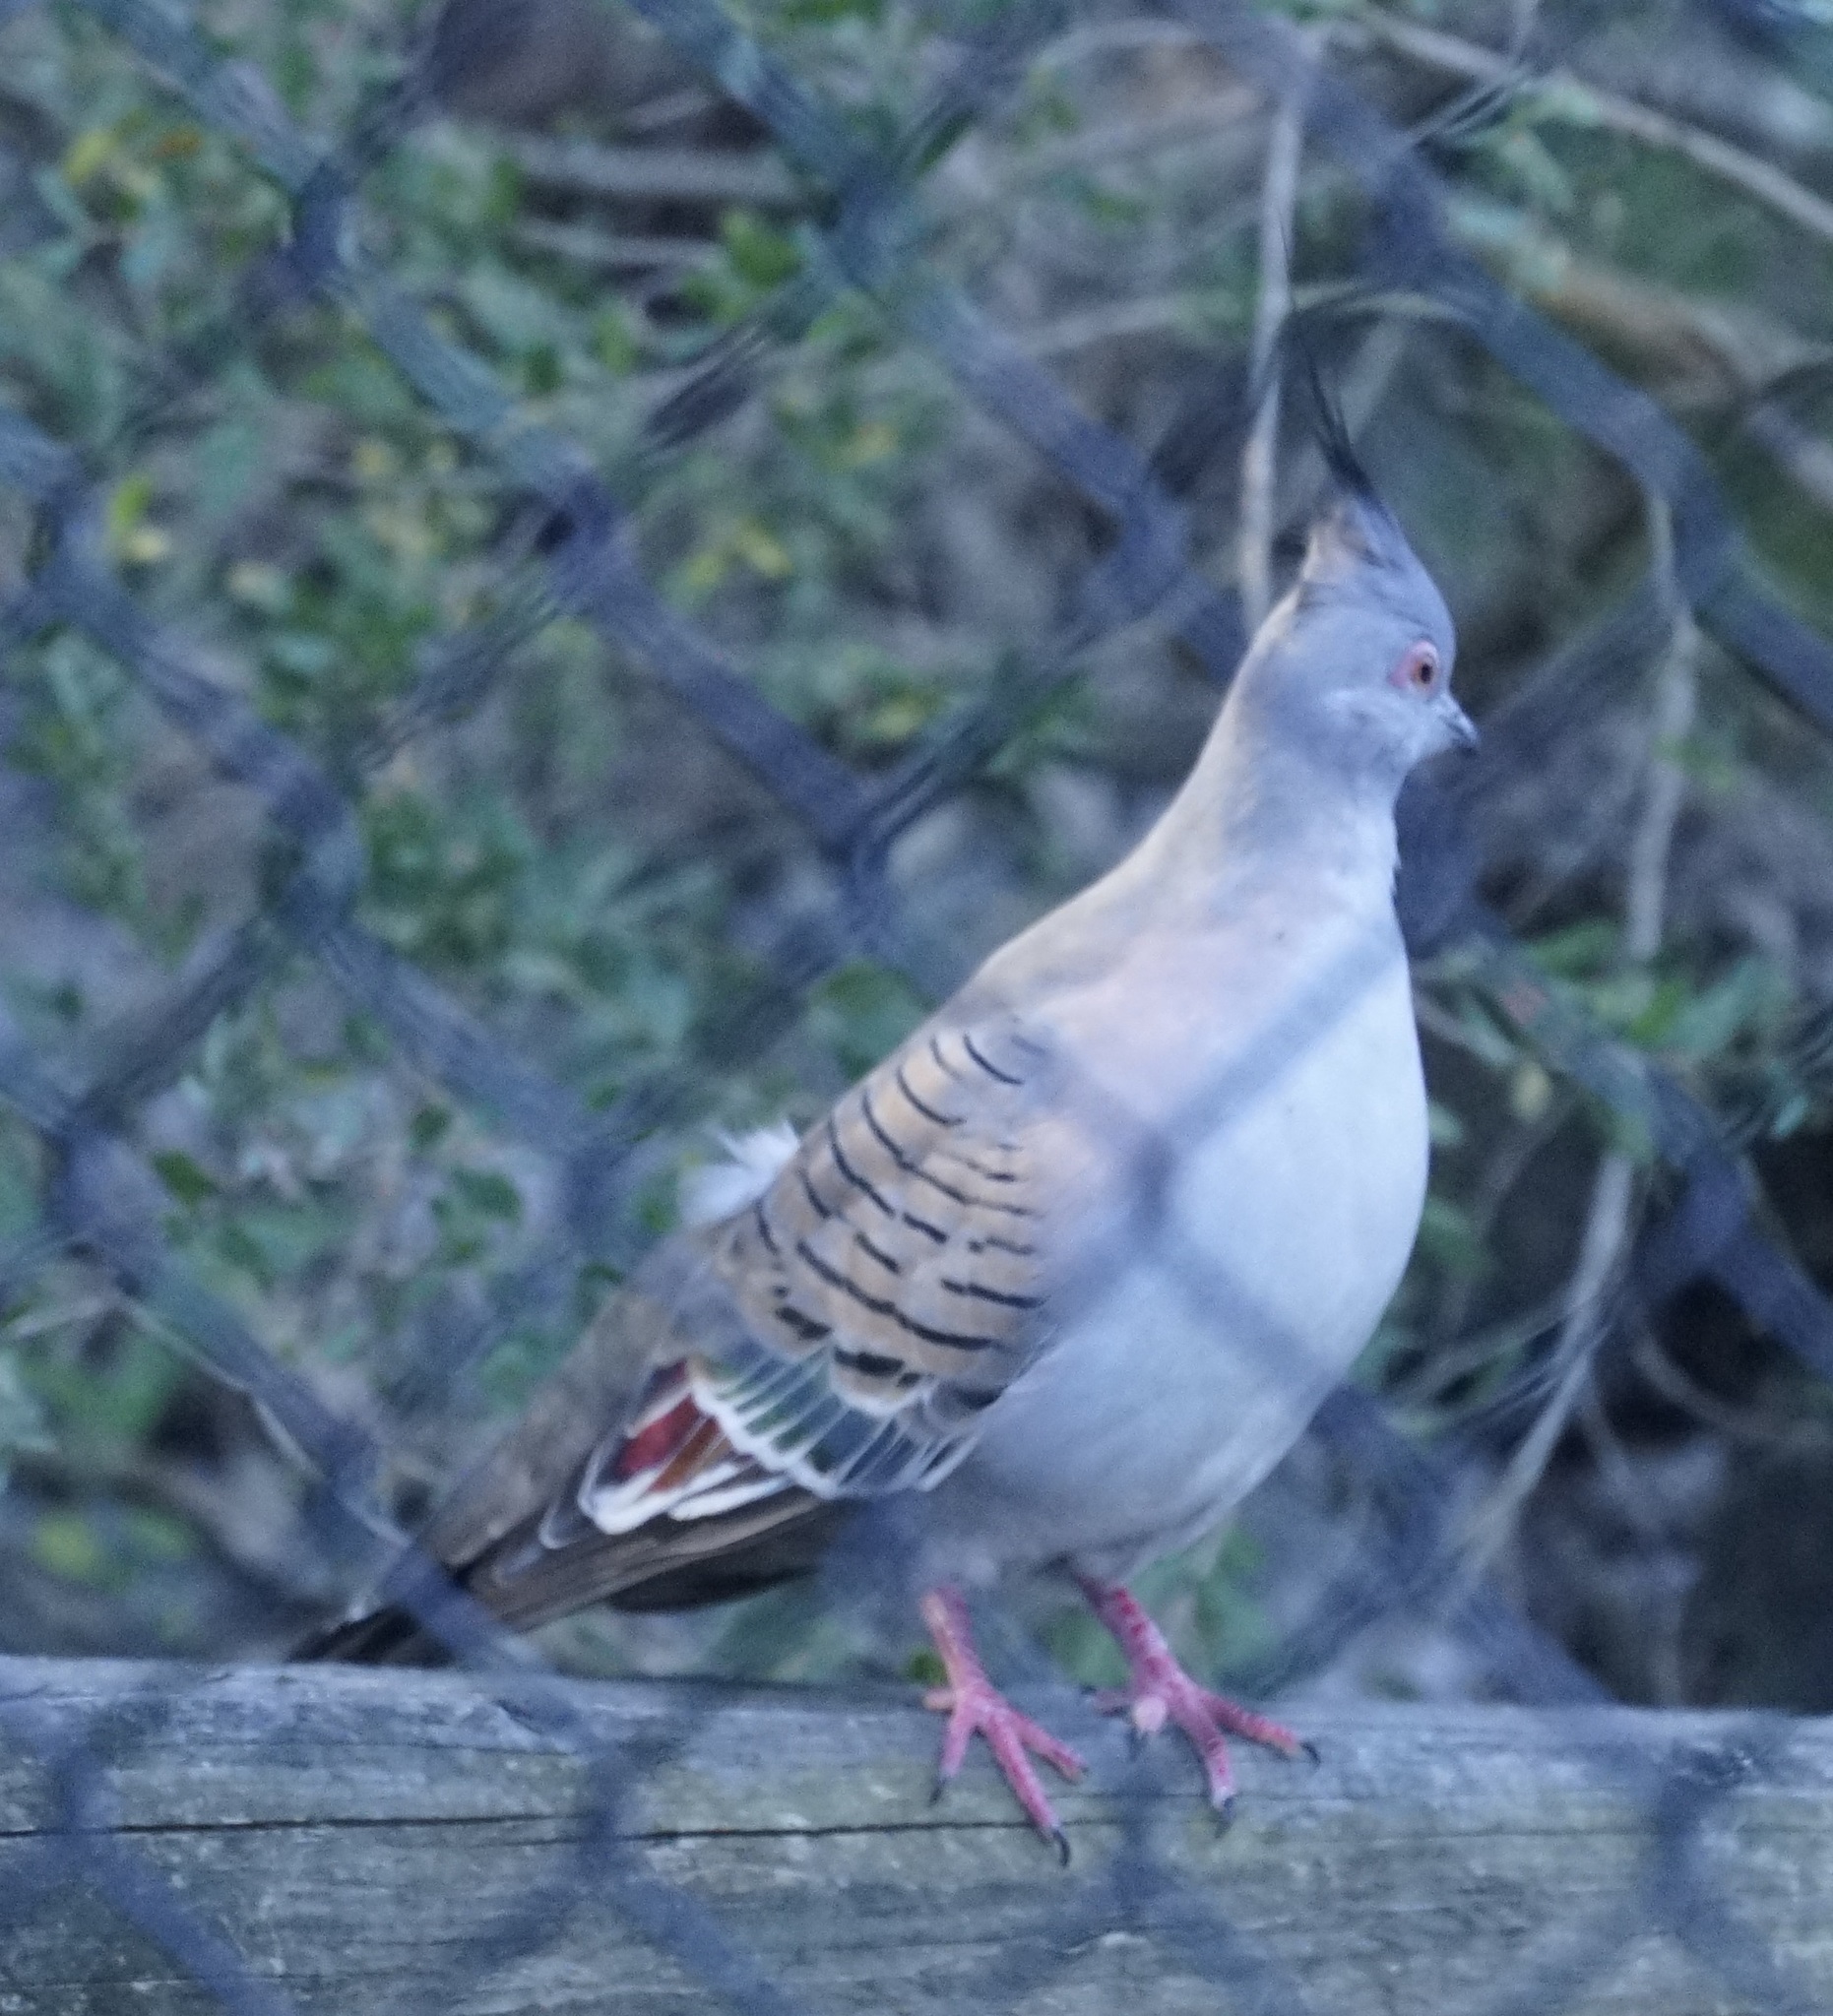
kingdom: Animalia
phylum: Chordata
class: Aves
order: Columbiformes
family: Columbidae
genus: Ocyphaps
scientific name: Ocyphaps lophotes
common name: Crested pigeon
